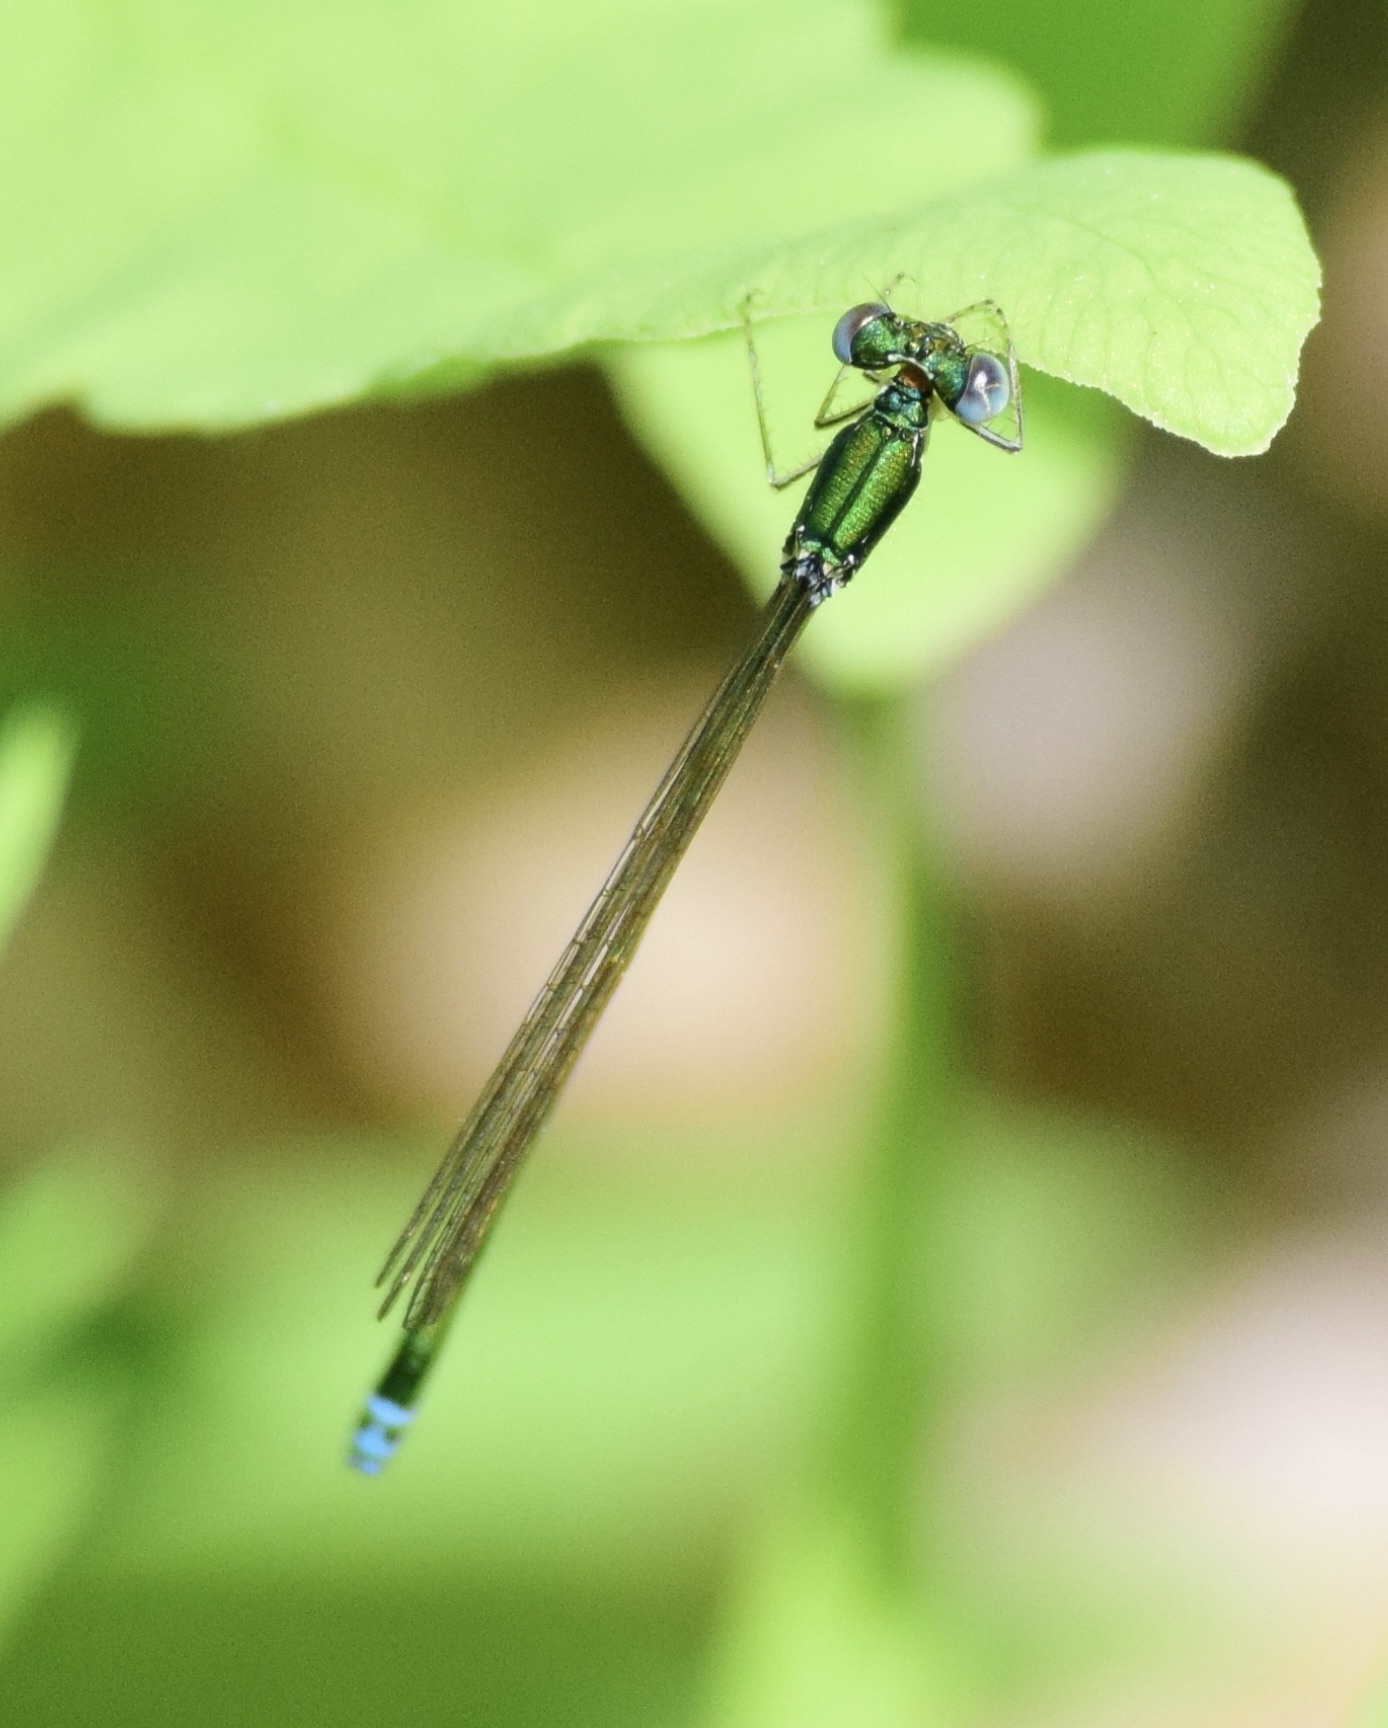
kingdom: Animalia
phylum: Arthropoda
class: Insecta
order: Odonata
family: Coenagrionidae
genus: Nehalennia
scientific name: Nehalennia irene
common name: Sedge sprite
